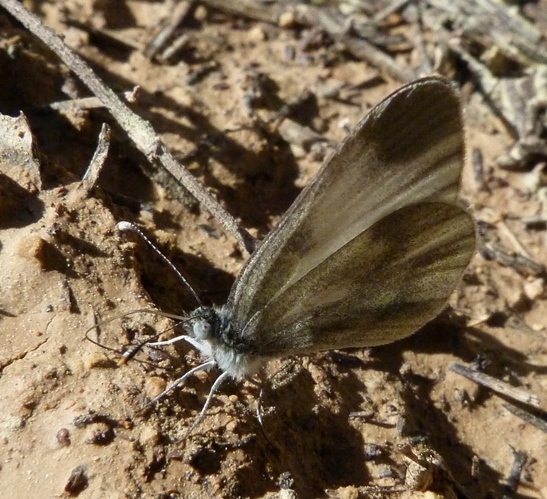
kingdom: Animalia
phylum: Arthropoda
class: Insecta
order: Lepidoptera
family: Pieridae
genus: Leptidea
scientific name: Leptidea sinapis
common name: Wood white
